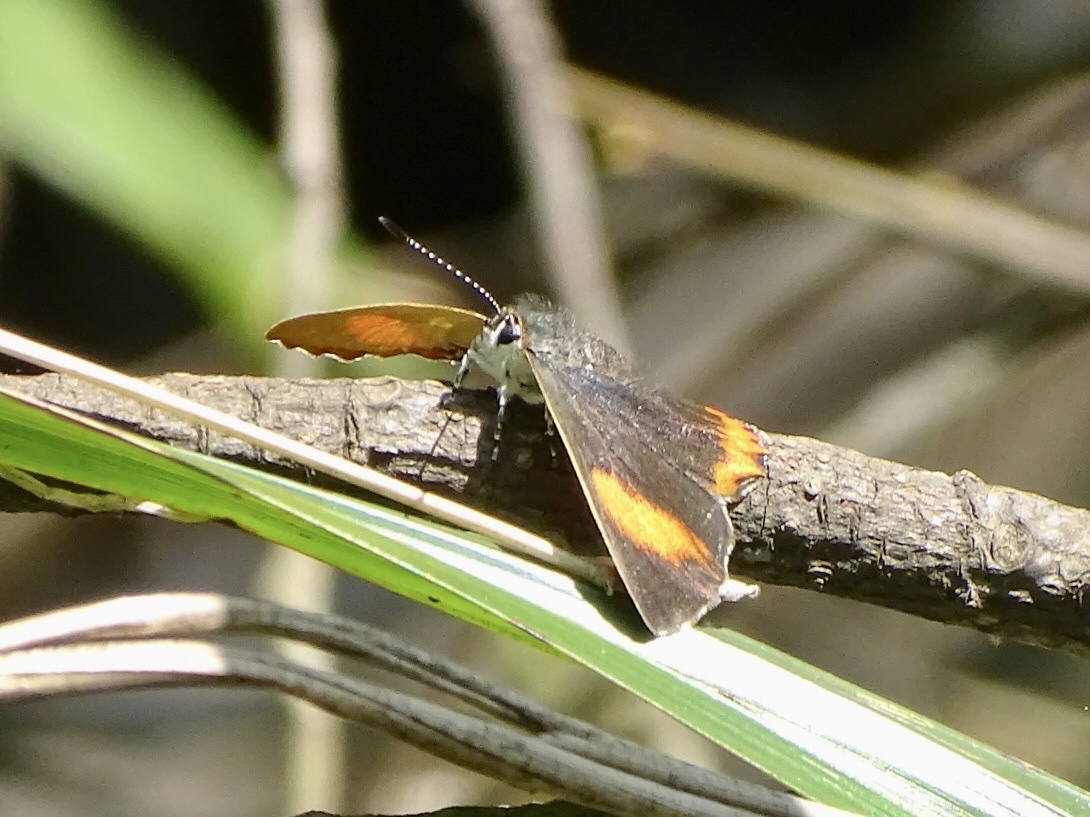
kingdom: Animalia
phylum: Arthropoda
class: Insecta
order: Lepidoptera
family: Lycaenidae
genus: Heliophorus
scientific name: Heliophorus epicles
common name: Purple sapphire
